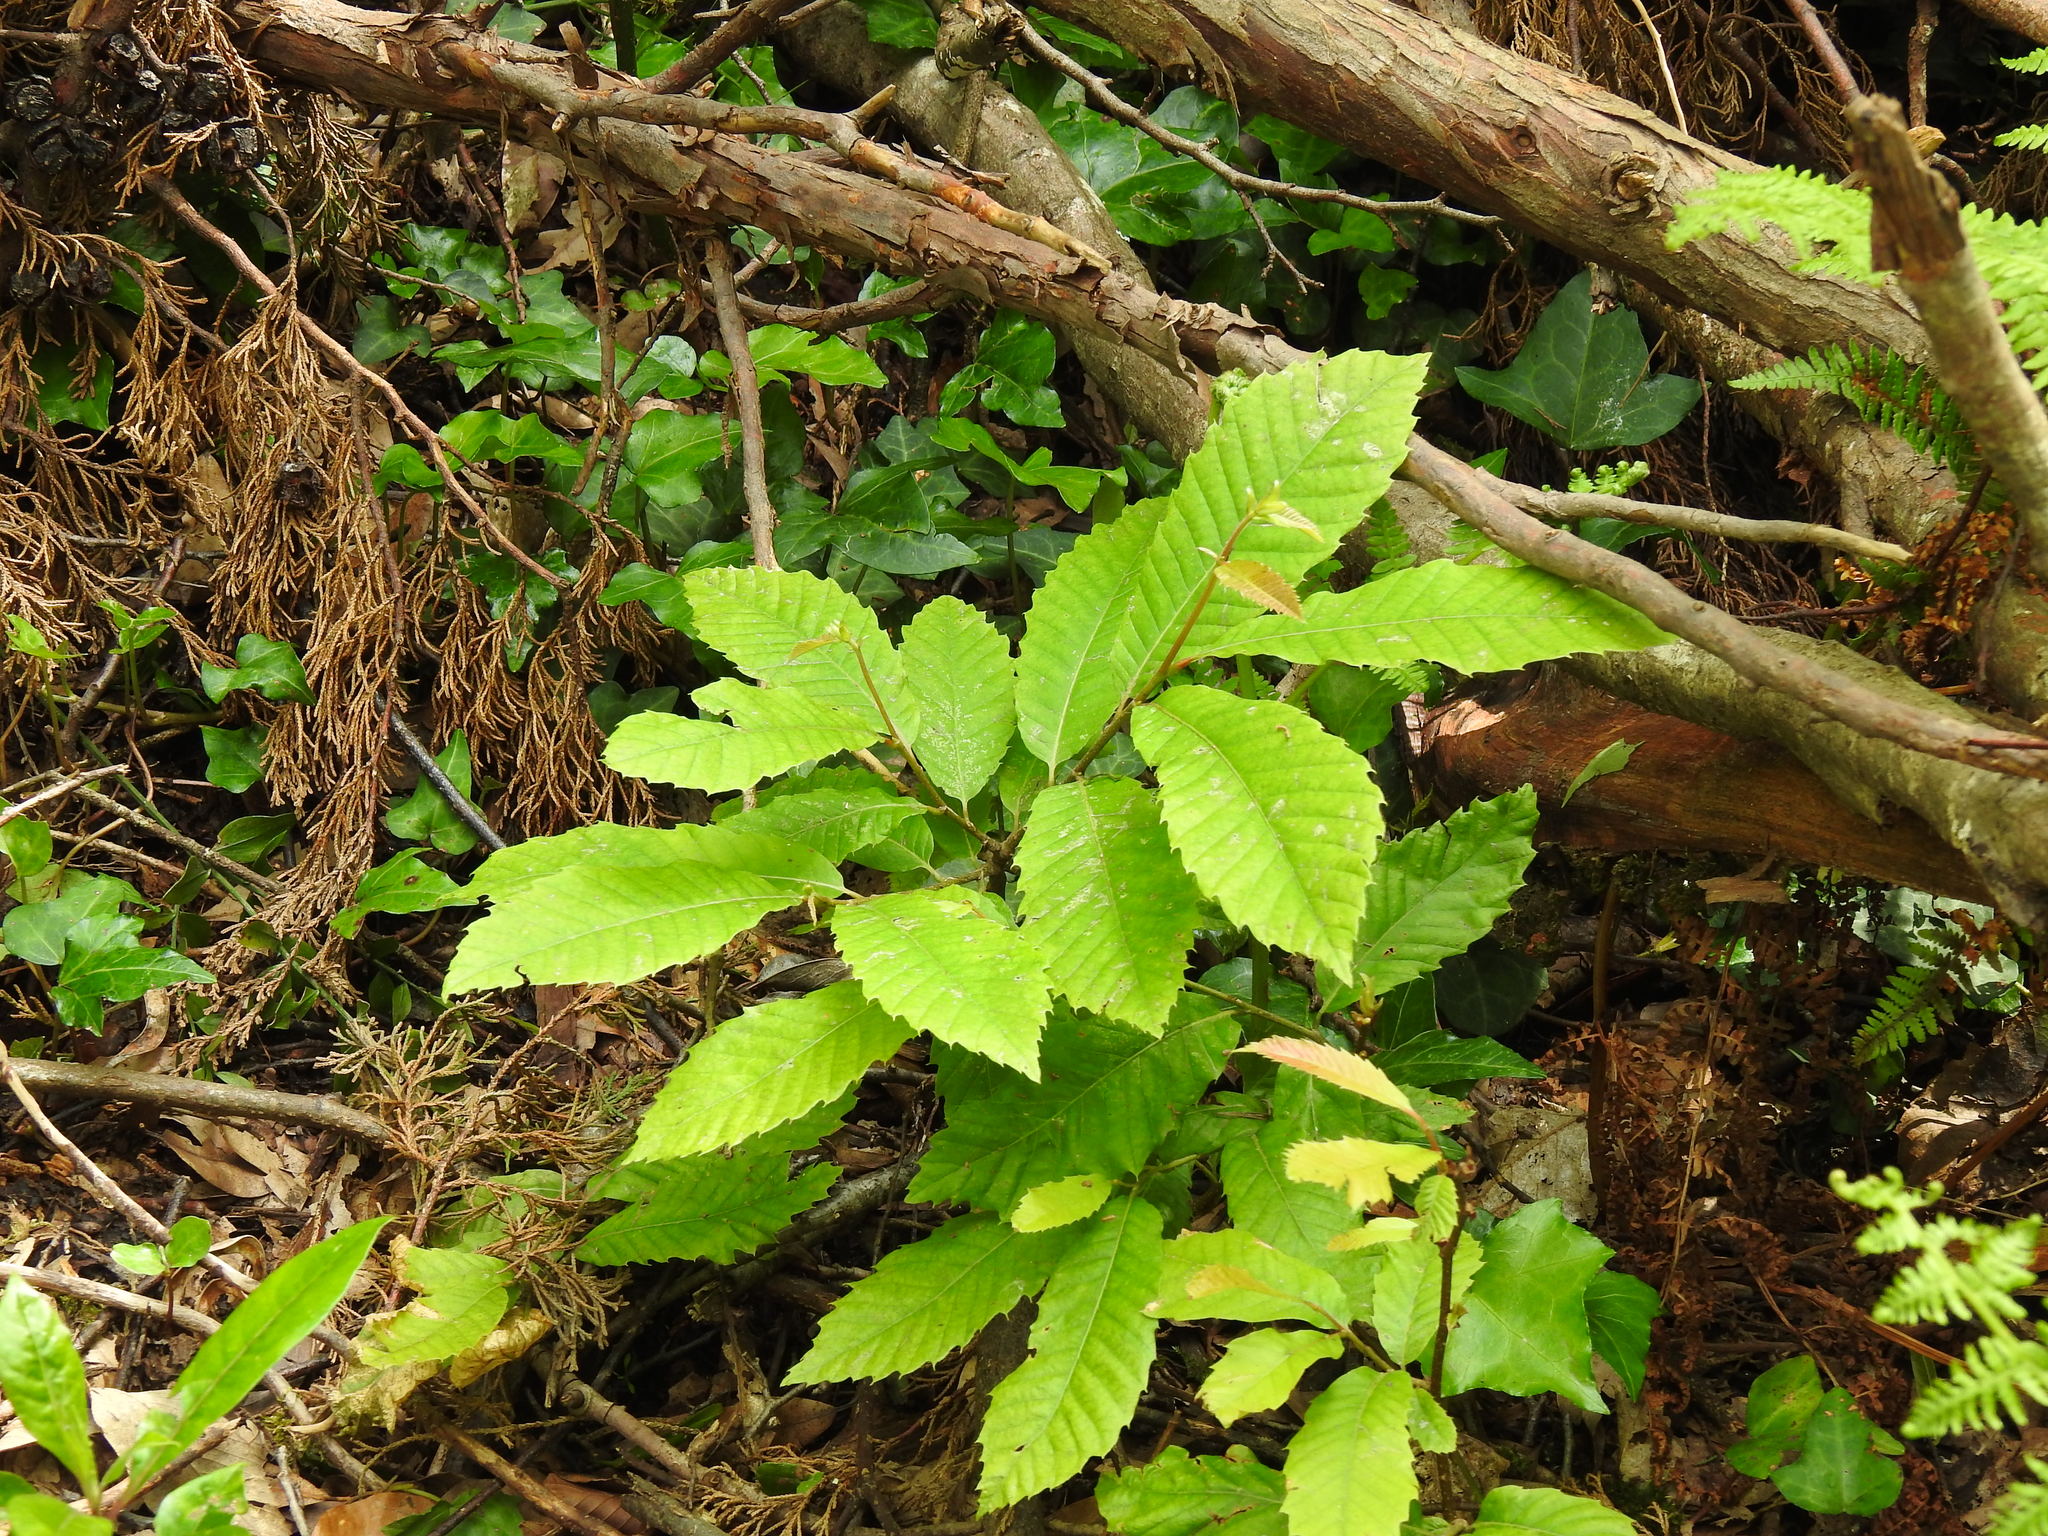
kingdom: Plantae
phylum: Tracheophyta
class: Magnoliopsida
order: Fagales
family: Fagaceae
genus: Castanea
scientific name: Castanea sativa
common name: Sweet chestnut
